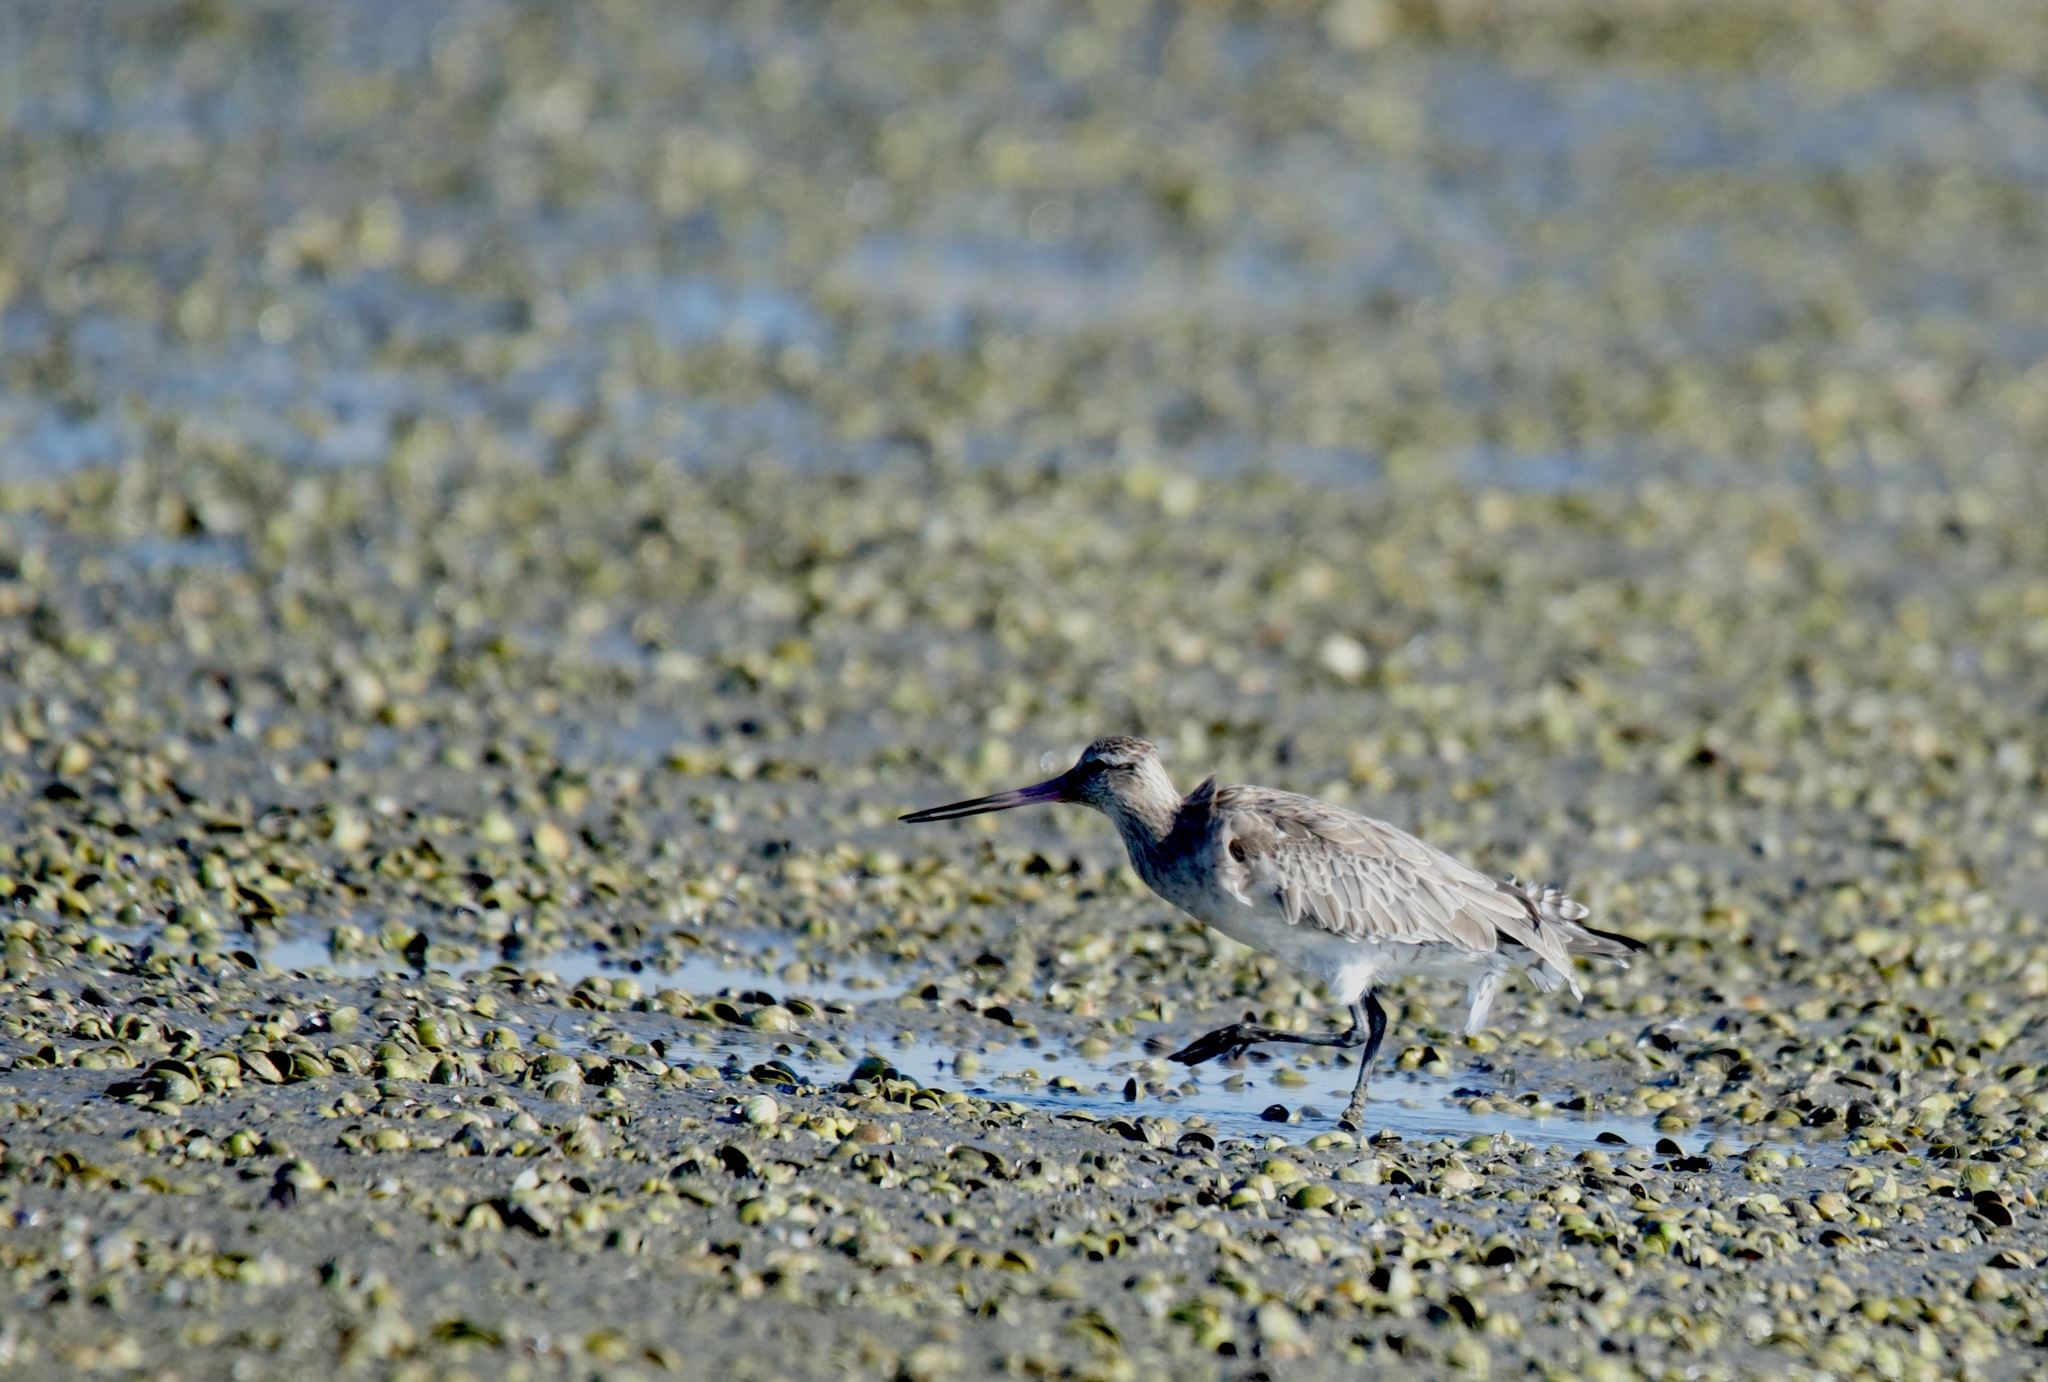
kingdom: Animalia
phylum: Chordata
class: Aves
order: Charadriiformes
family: Scolopacidae
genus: Limosa
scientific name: Limosa lapponica
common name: Bar-tailed godwit
